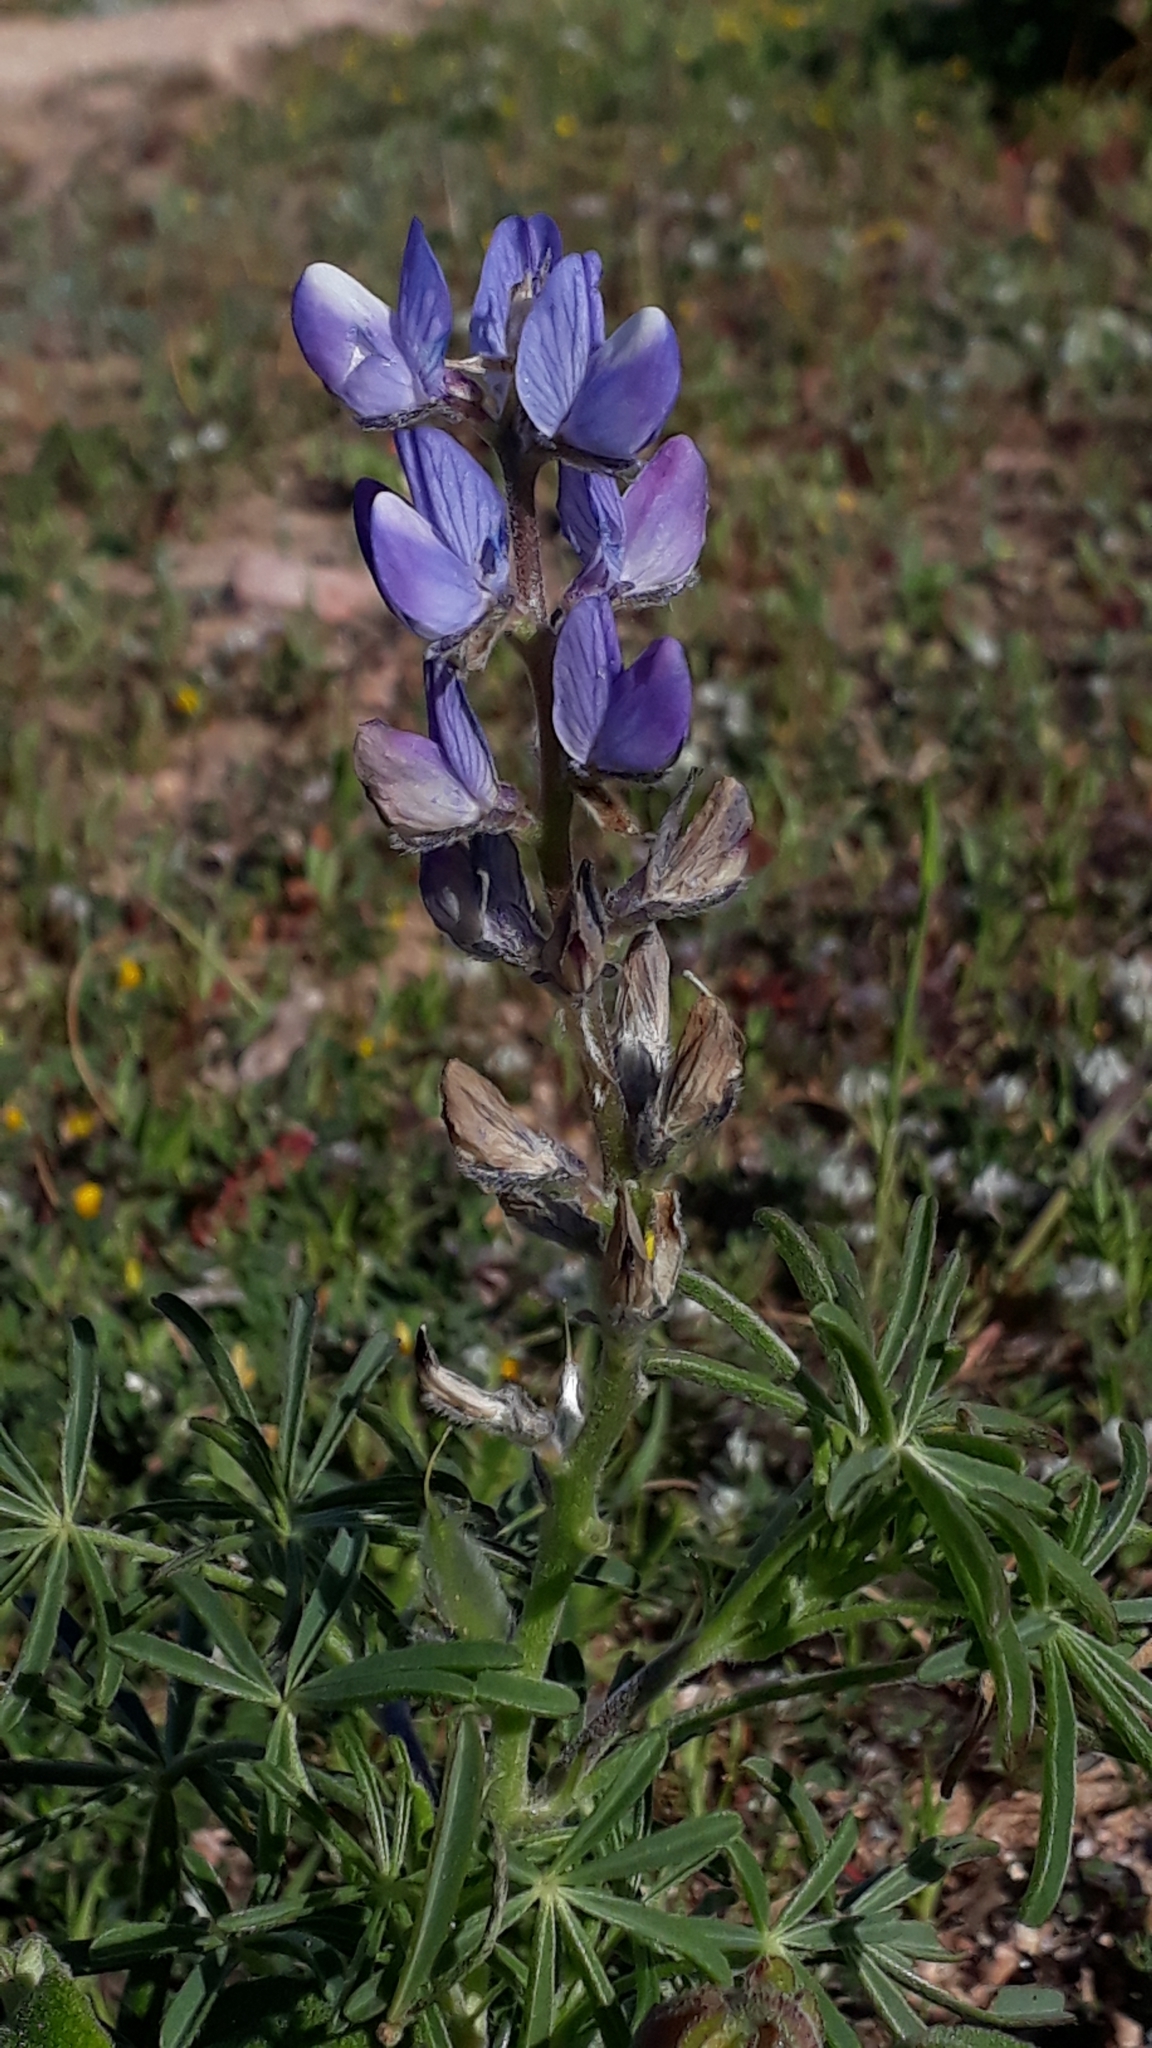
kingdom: Plantae
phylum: Tracheophyta
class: Magnoliopsida
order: Fabales
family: Fabaceae
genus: Lupinus
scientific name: Lupinus angustifolius
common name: Narrow-leaved lupin
